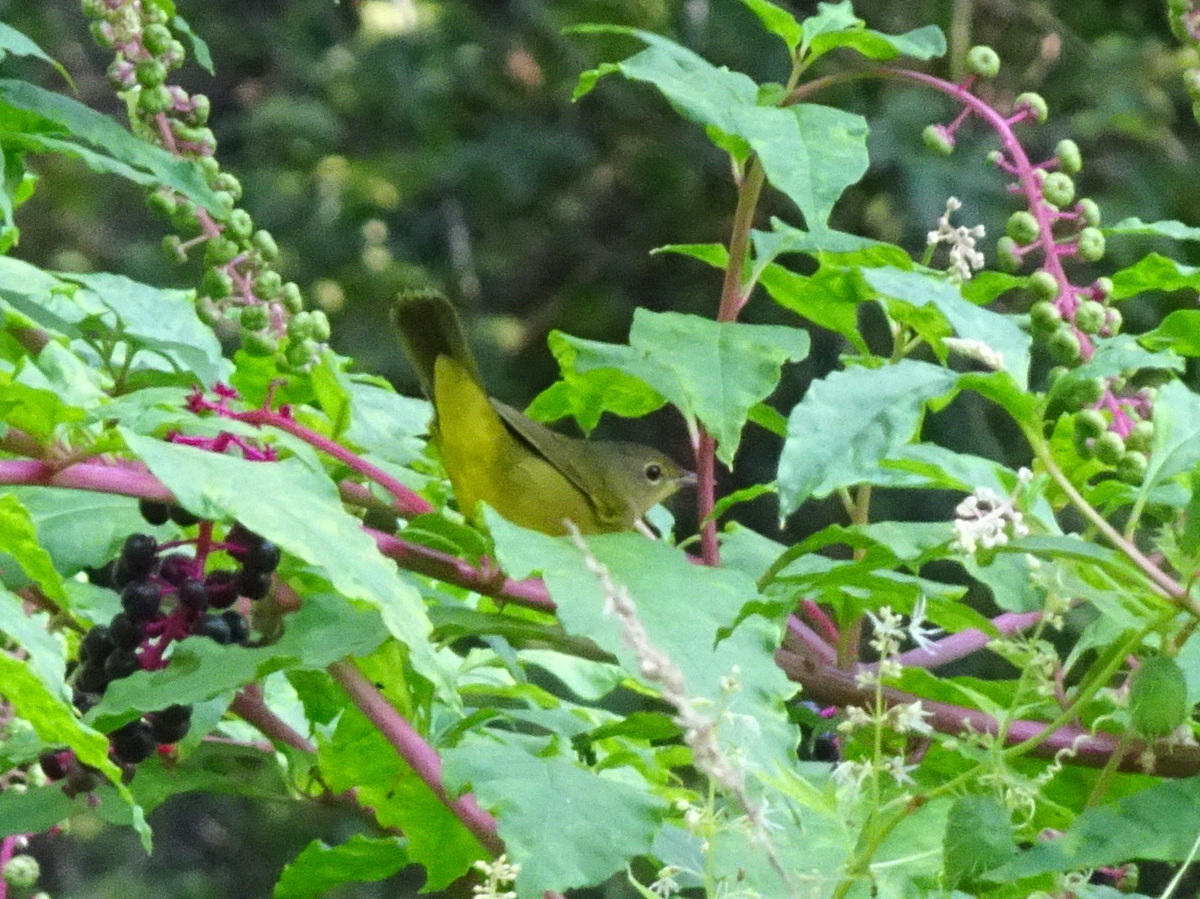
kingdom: Animalia
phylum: Chordata
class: Aves
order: Passeriformes
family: Parulidae
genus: Geothlypis
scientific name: Geothlypis philadelphia
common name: Mourning warbler
